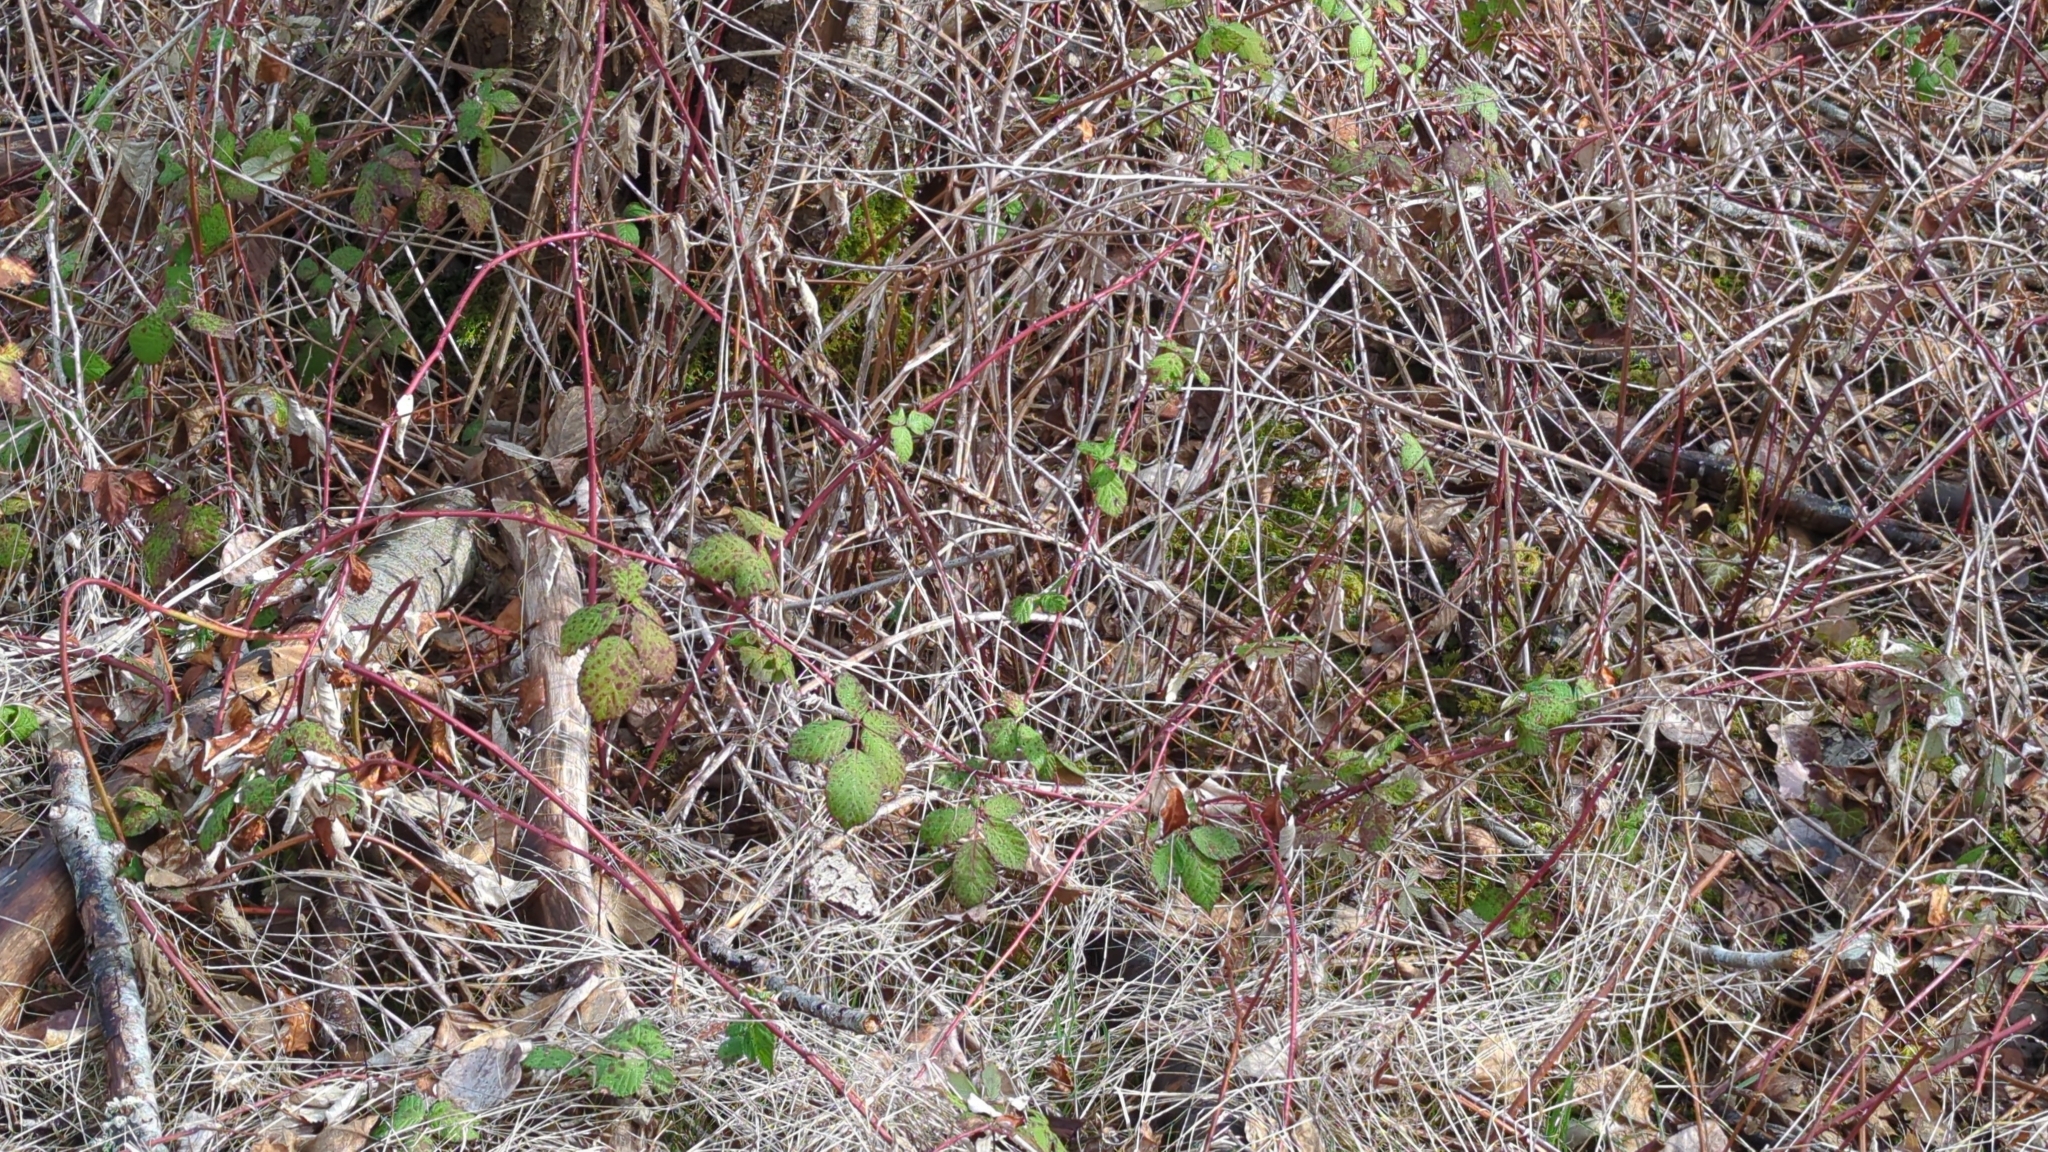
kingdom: Plantae
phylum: Tracheophyta
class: Magnoliopsida
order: Rosales
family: Rosaceae
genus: Rubus
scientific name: Rubus bifrons
